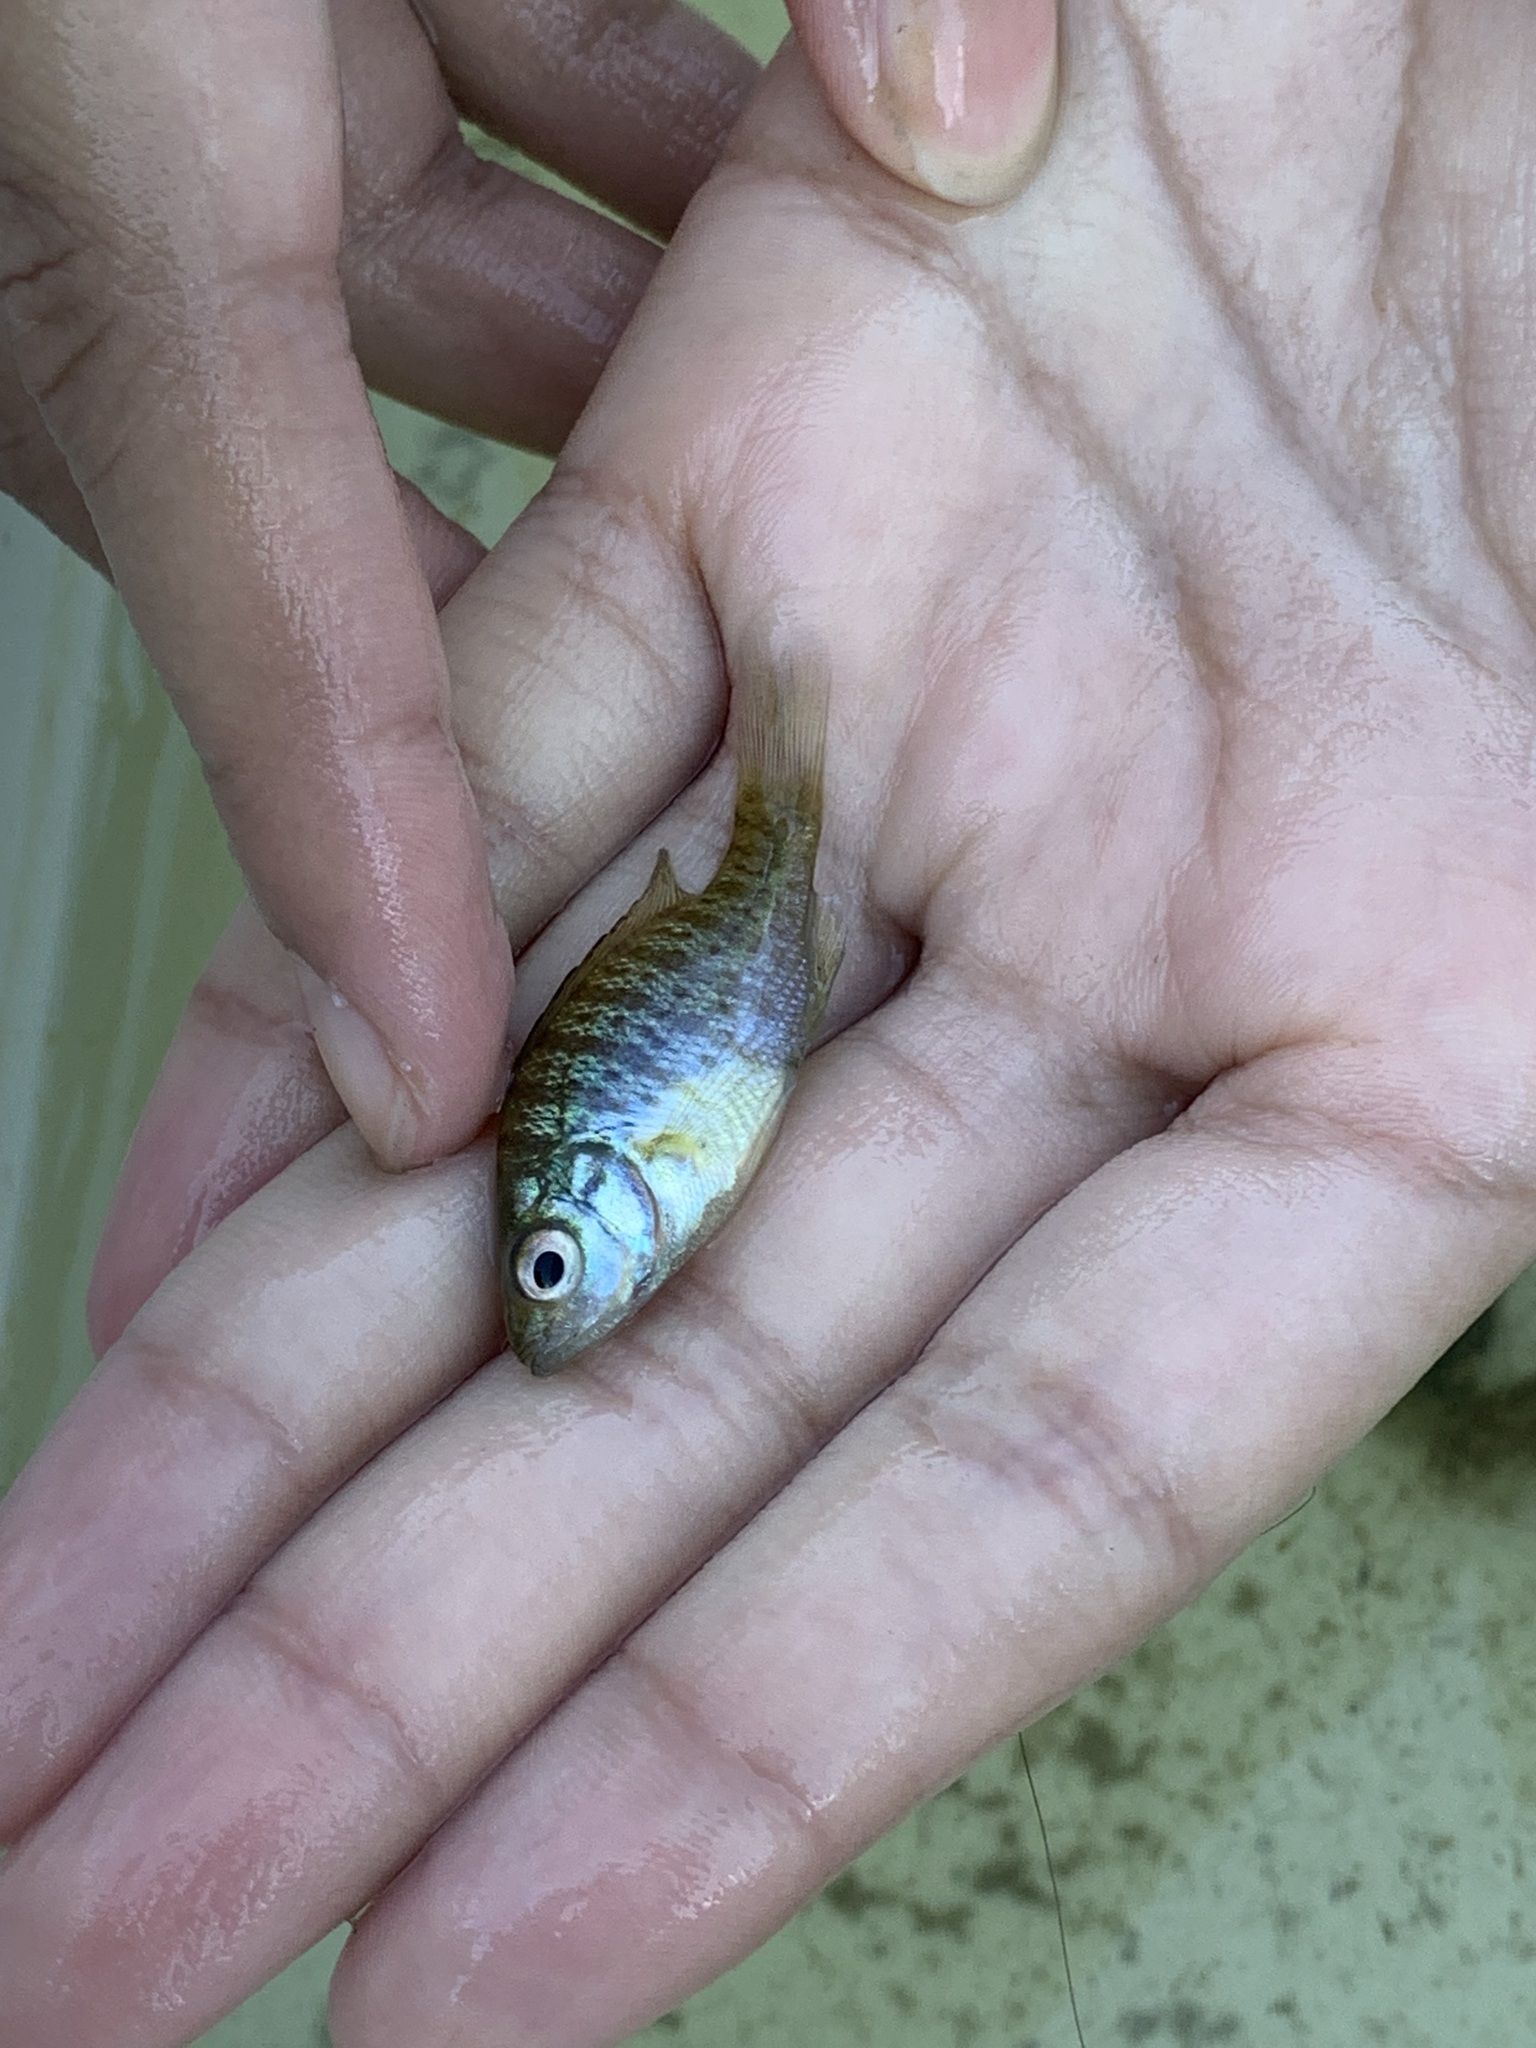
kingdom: Animalia
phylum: Chordata
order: Perciformes
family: Centrarchidae
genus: Lepomis
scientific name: Lepomis macrochirus
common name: Bluegill
